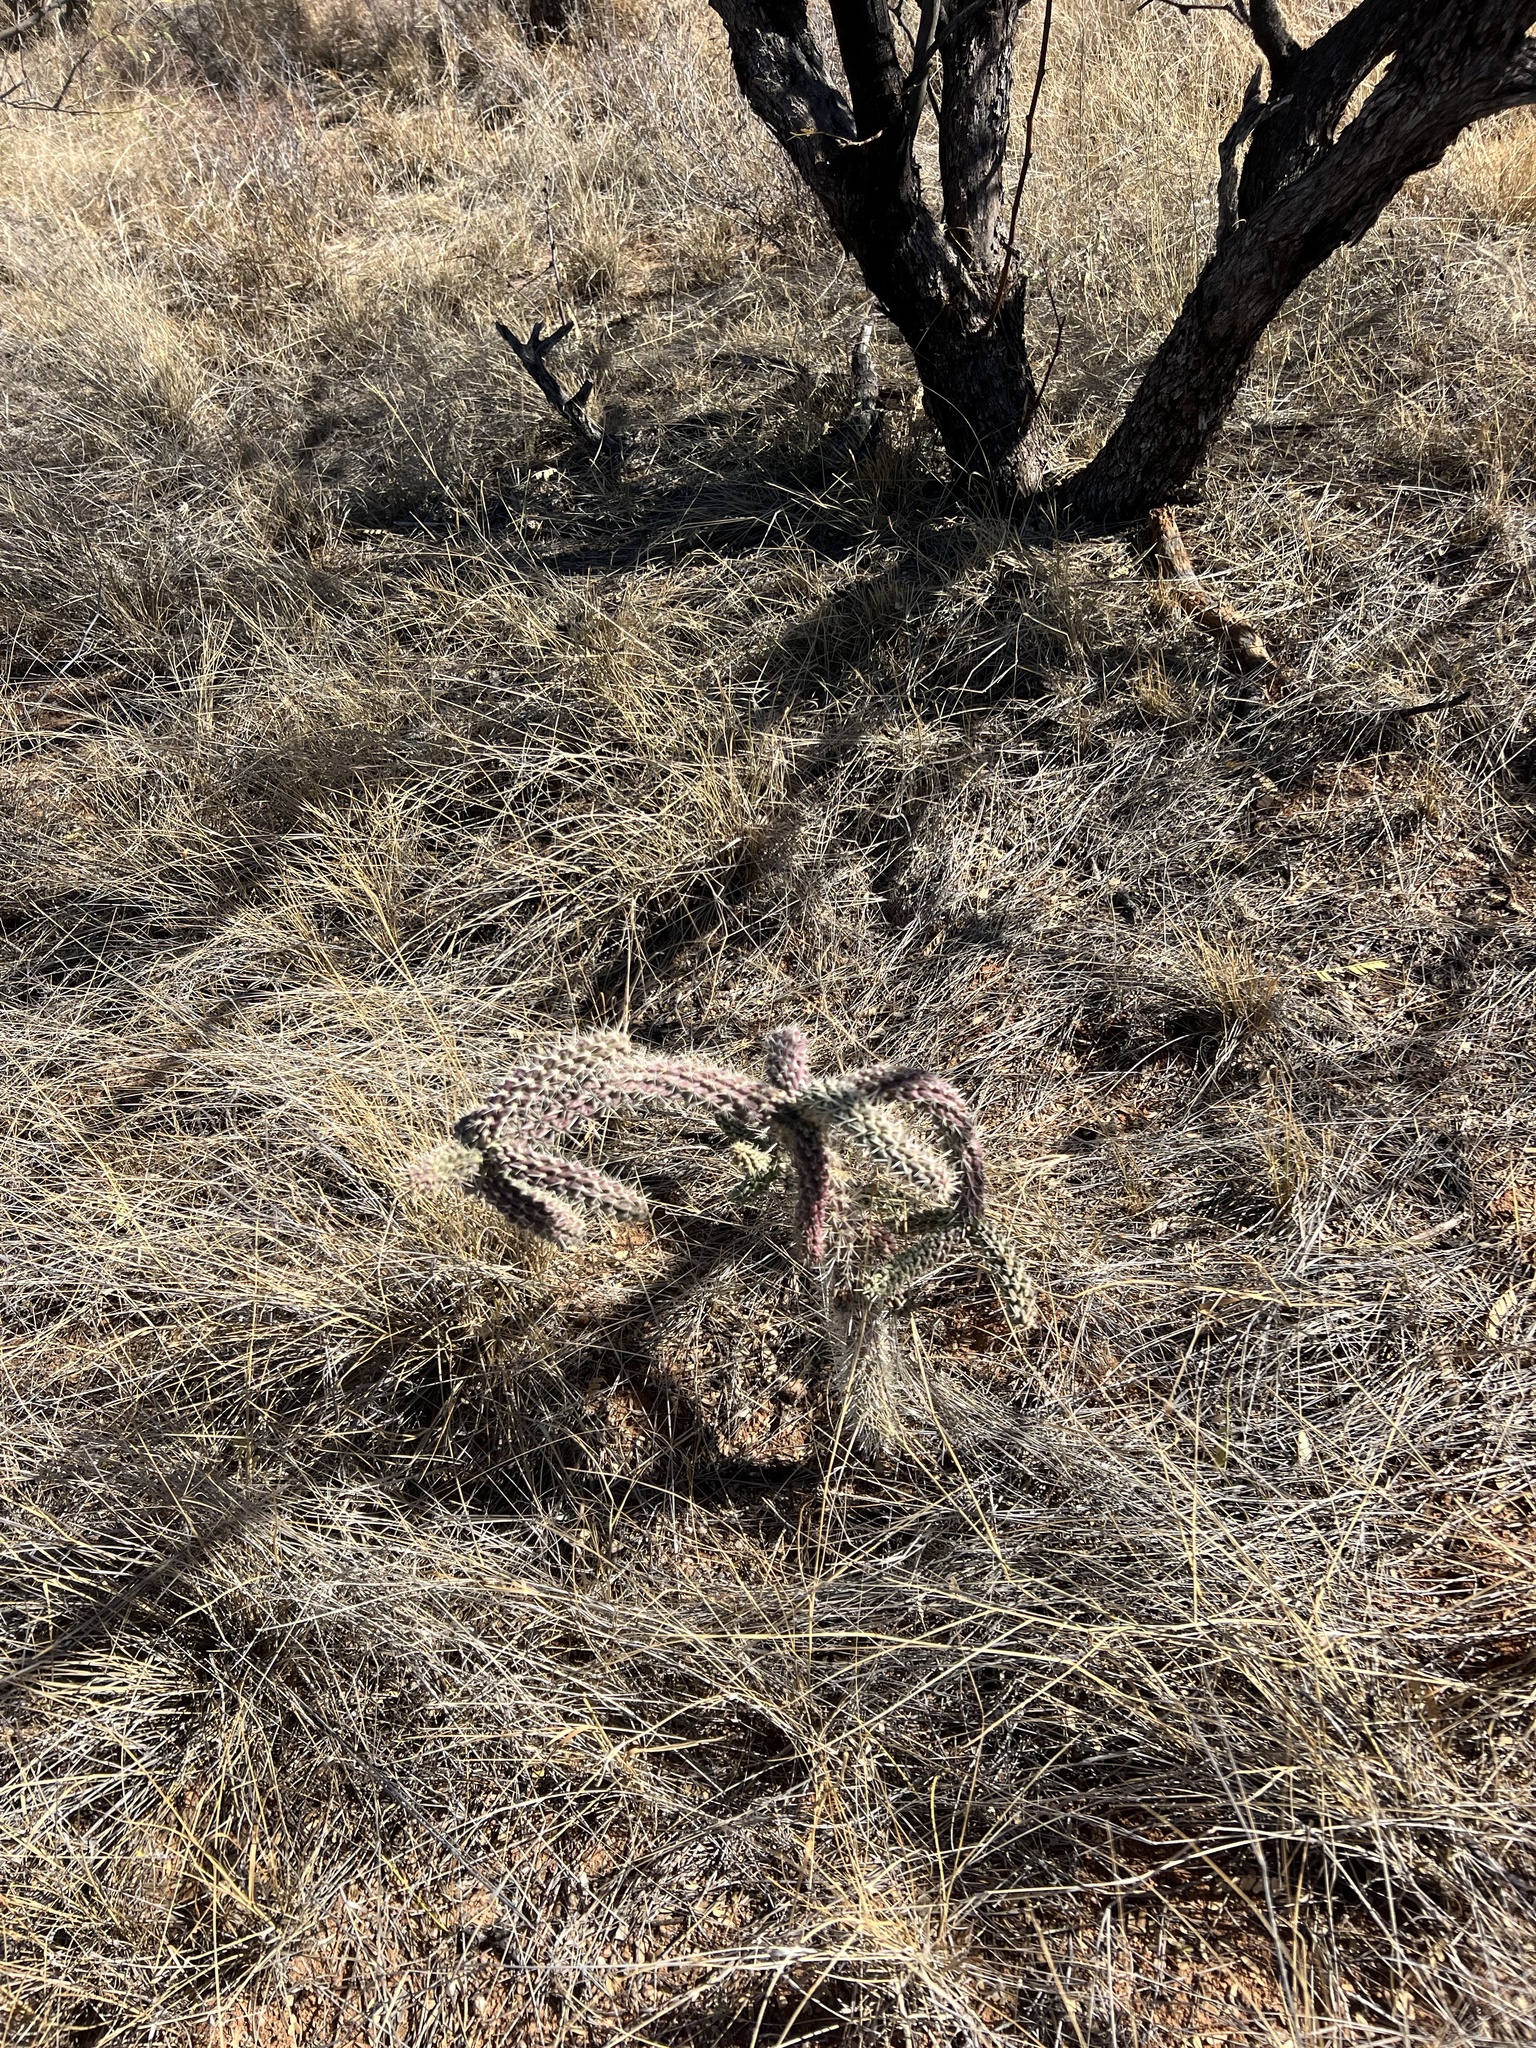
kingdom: Plantae
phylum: Tracheophyta
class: Magnoliopsida
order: Caryophyllales
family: Cactaceae
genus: Cylindropuntia
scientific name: Cylindropuntia imbricata
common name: Candelabrum cactus
